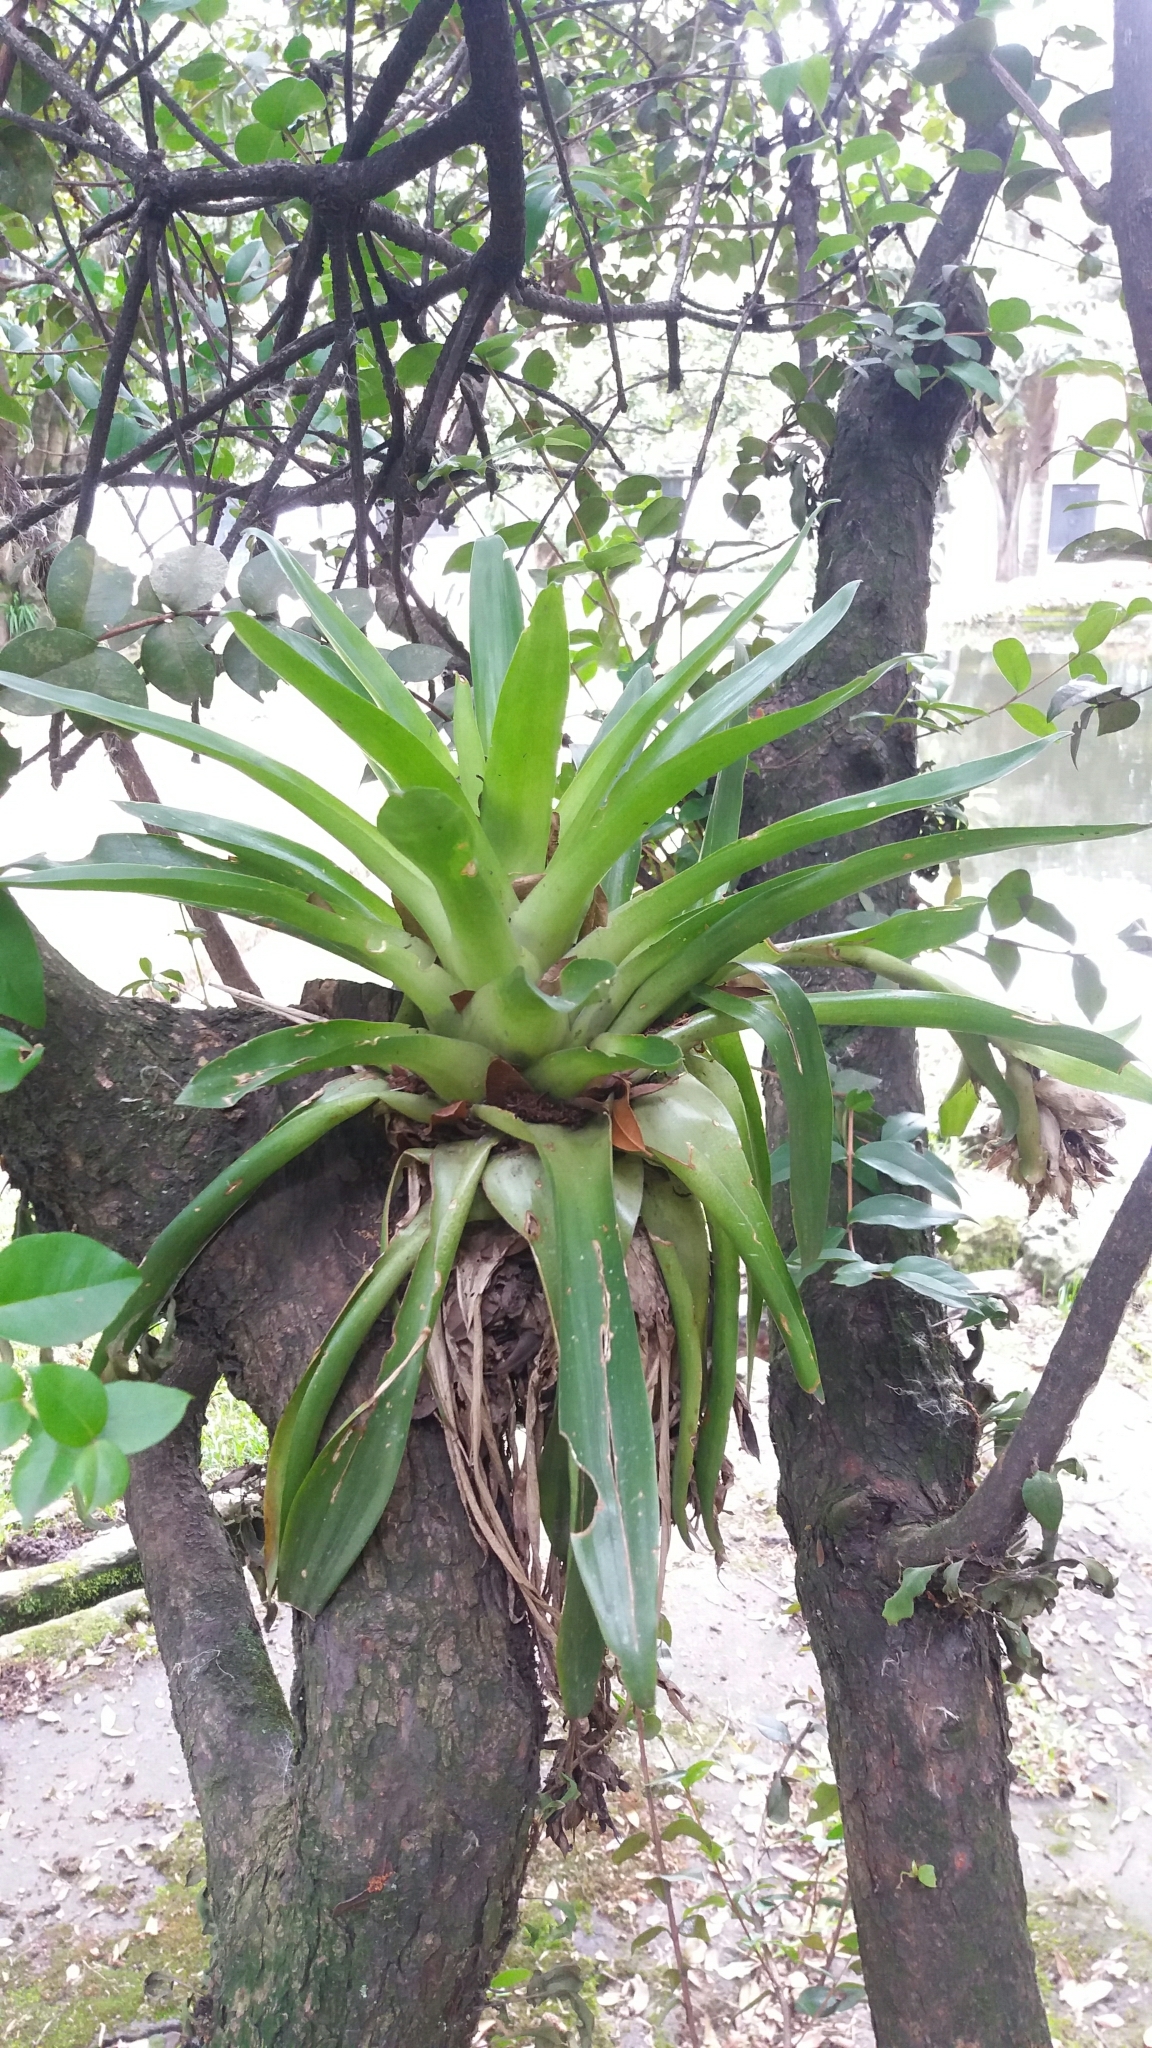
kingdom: Plantae
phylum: Tracheophyta
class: Liliopsida
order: Poales
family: Bromeliaceae
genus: Tillandsia
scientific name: Tillandsia biflora
